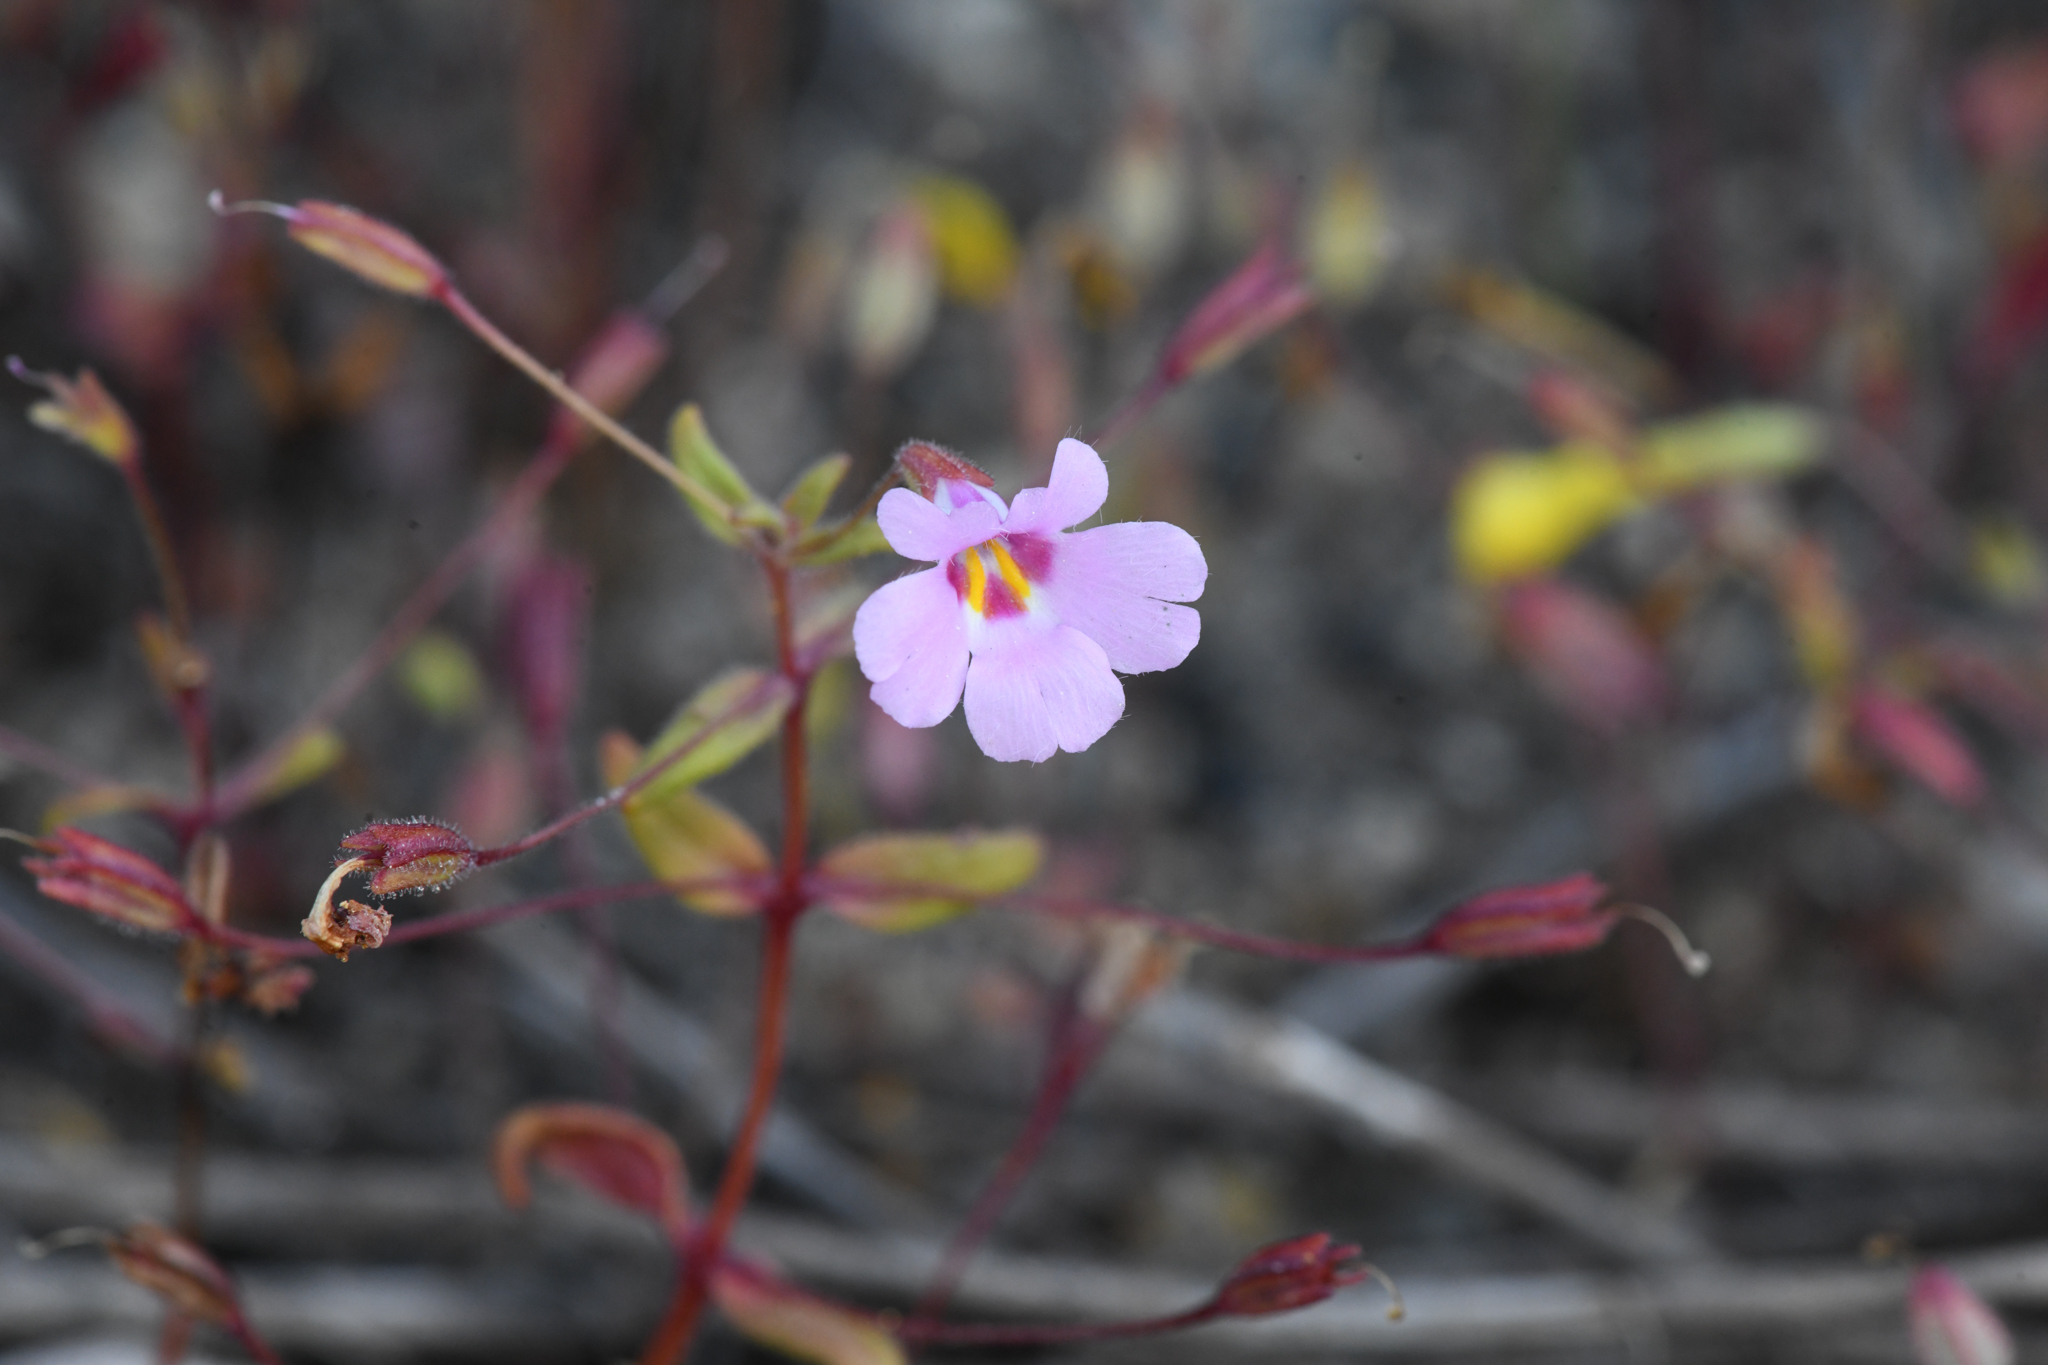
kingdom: Plantae
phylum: Tracheophyta
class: Magnoliopsida
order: Lamiales
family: Phrymaceae
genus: Erythranthe
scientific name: Erythranthe gracilipes
